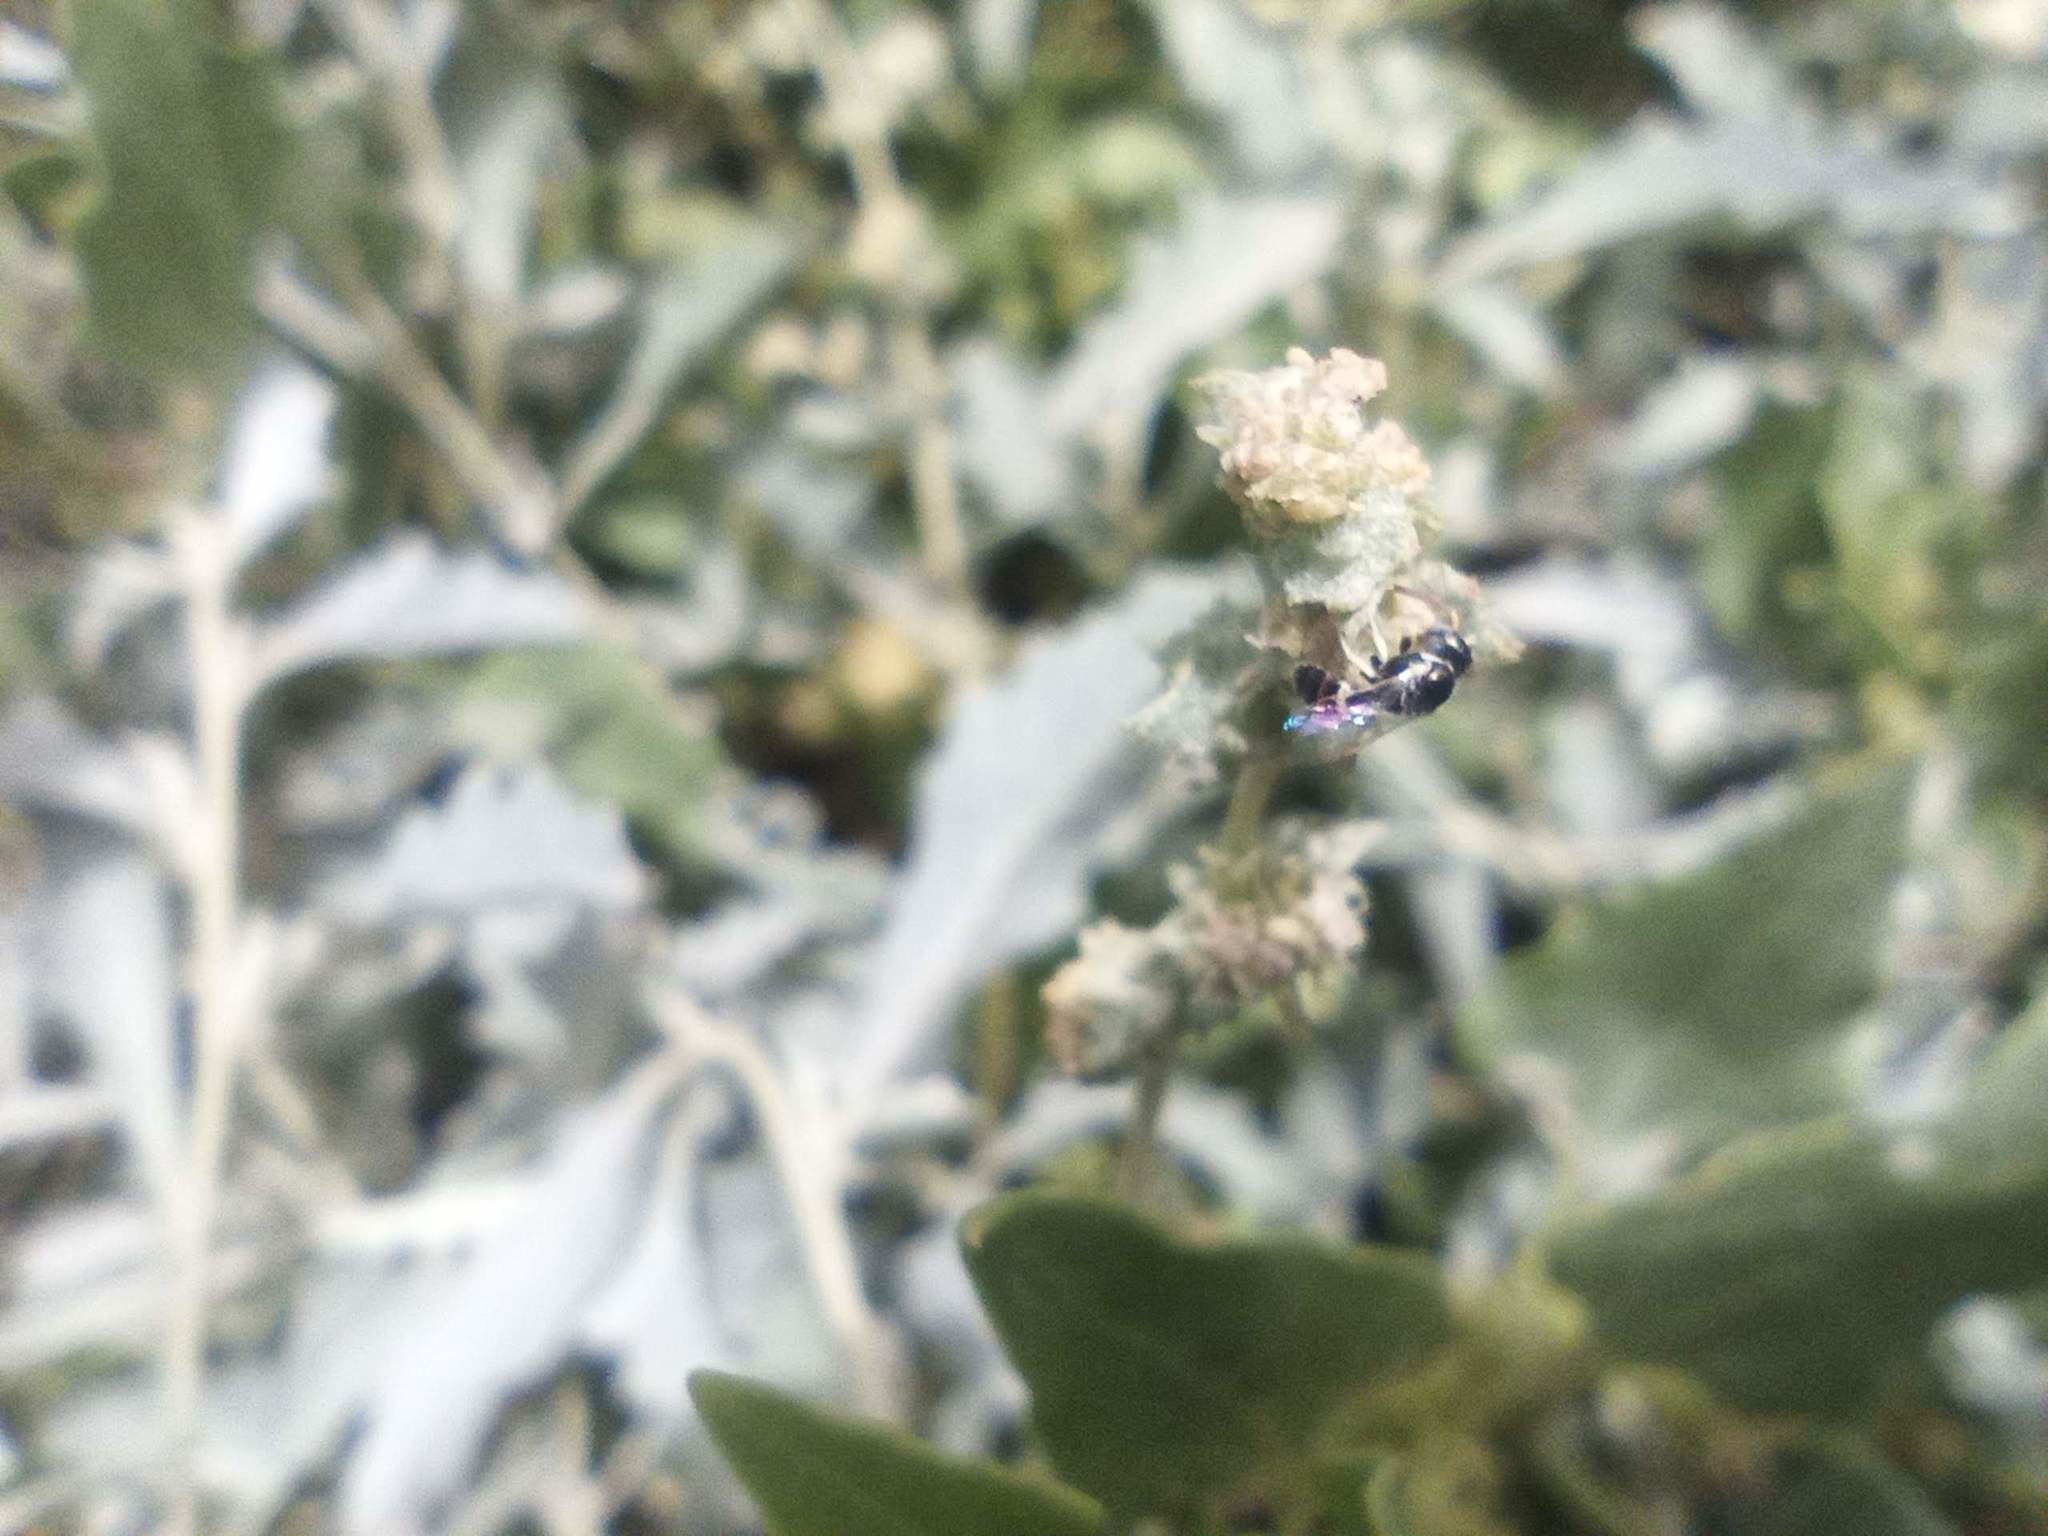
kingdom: Animalia
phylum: Arthropoda
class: Insecta
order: Hymenoptera
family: Halictidae
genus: Ceylalictus
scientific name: Ceylalictus variegatus
